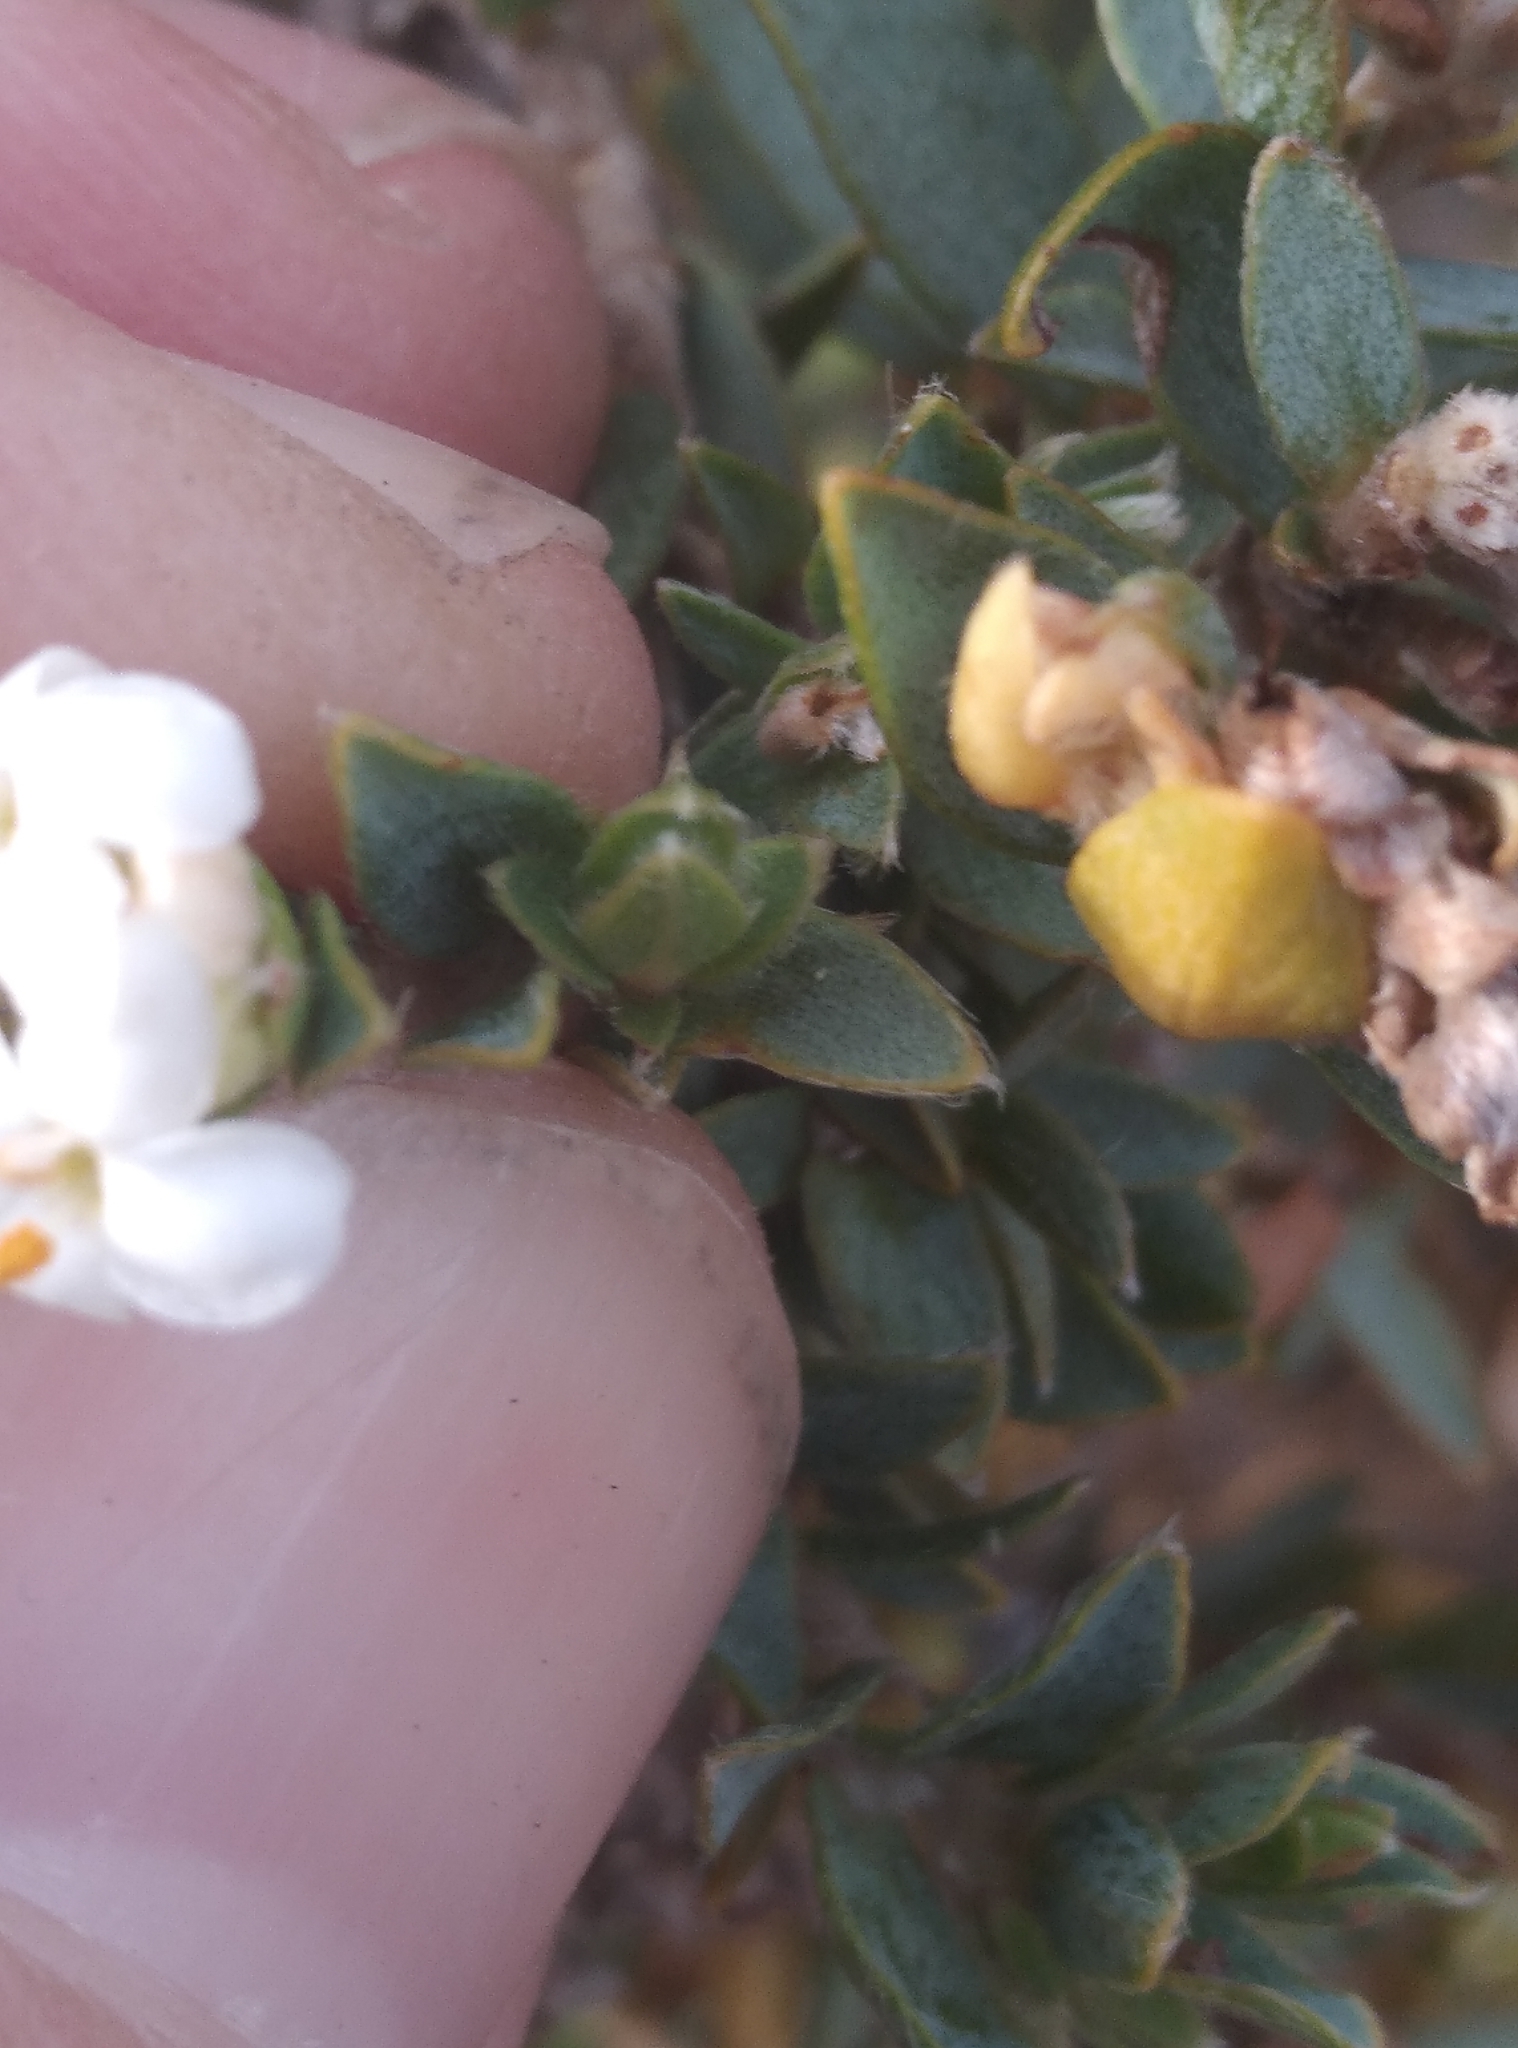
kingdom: Plantae
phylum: Tracheophyta
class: Magnoliopsida
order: Malvales
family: Thymelaeaceae
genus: Pimelea
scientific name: Pimelea declivis
